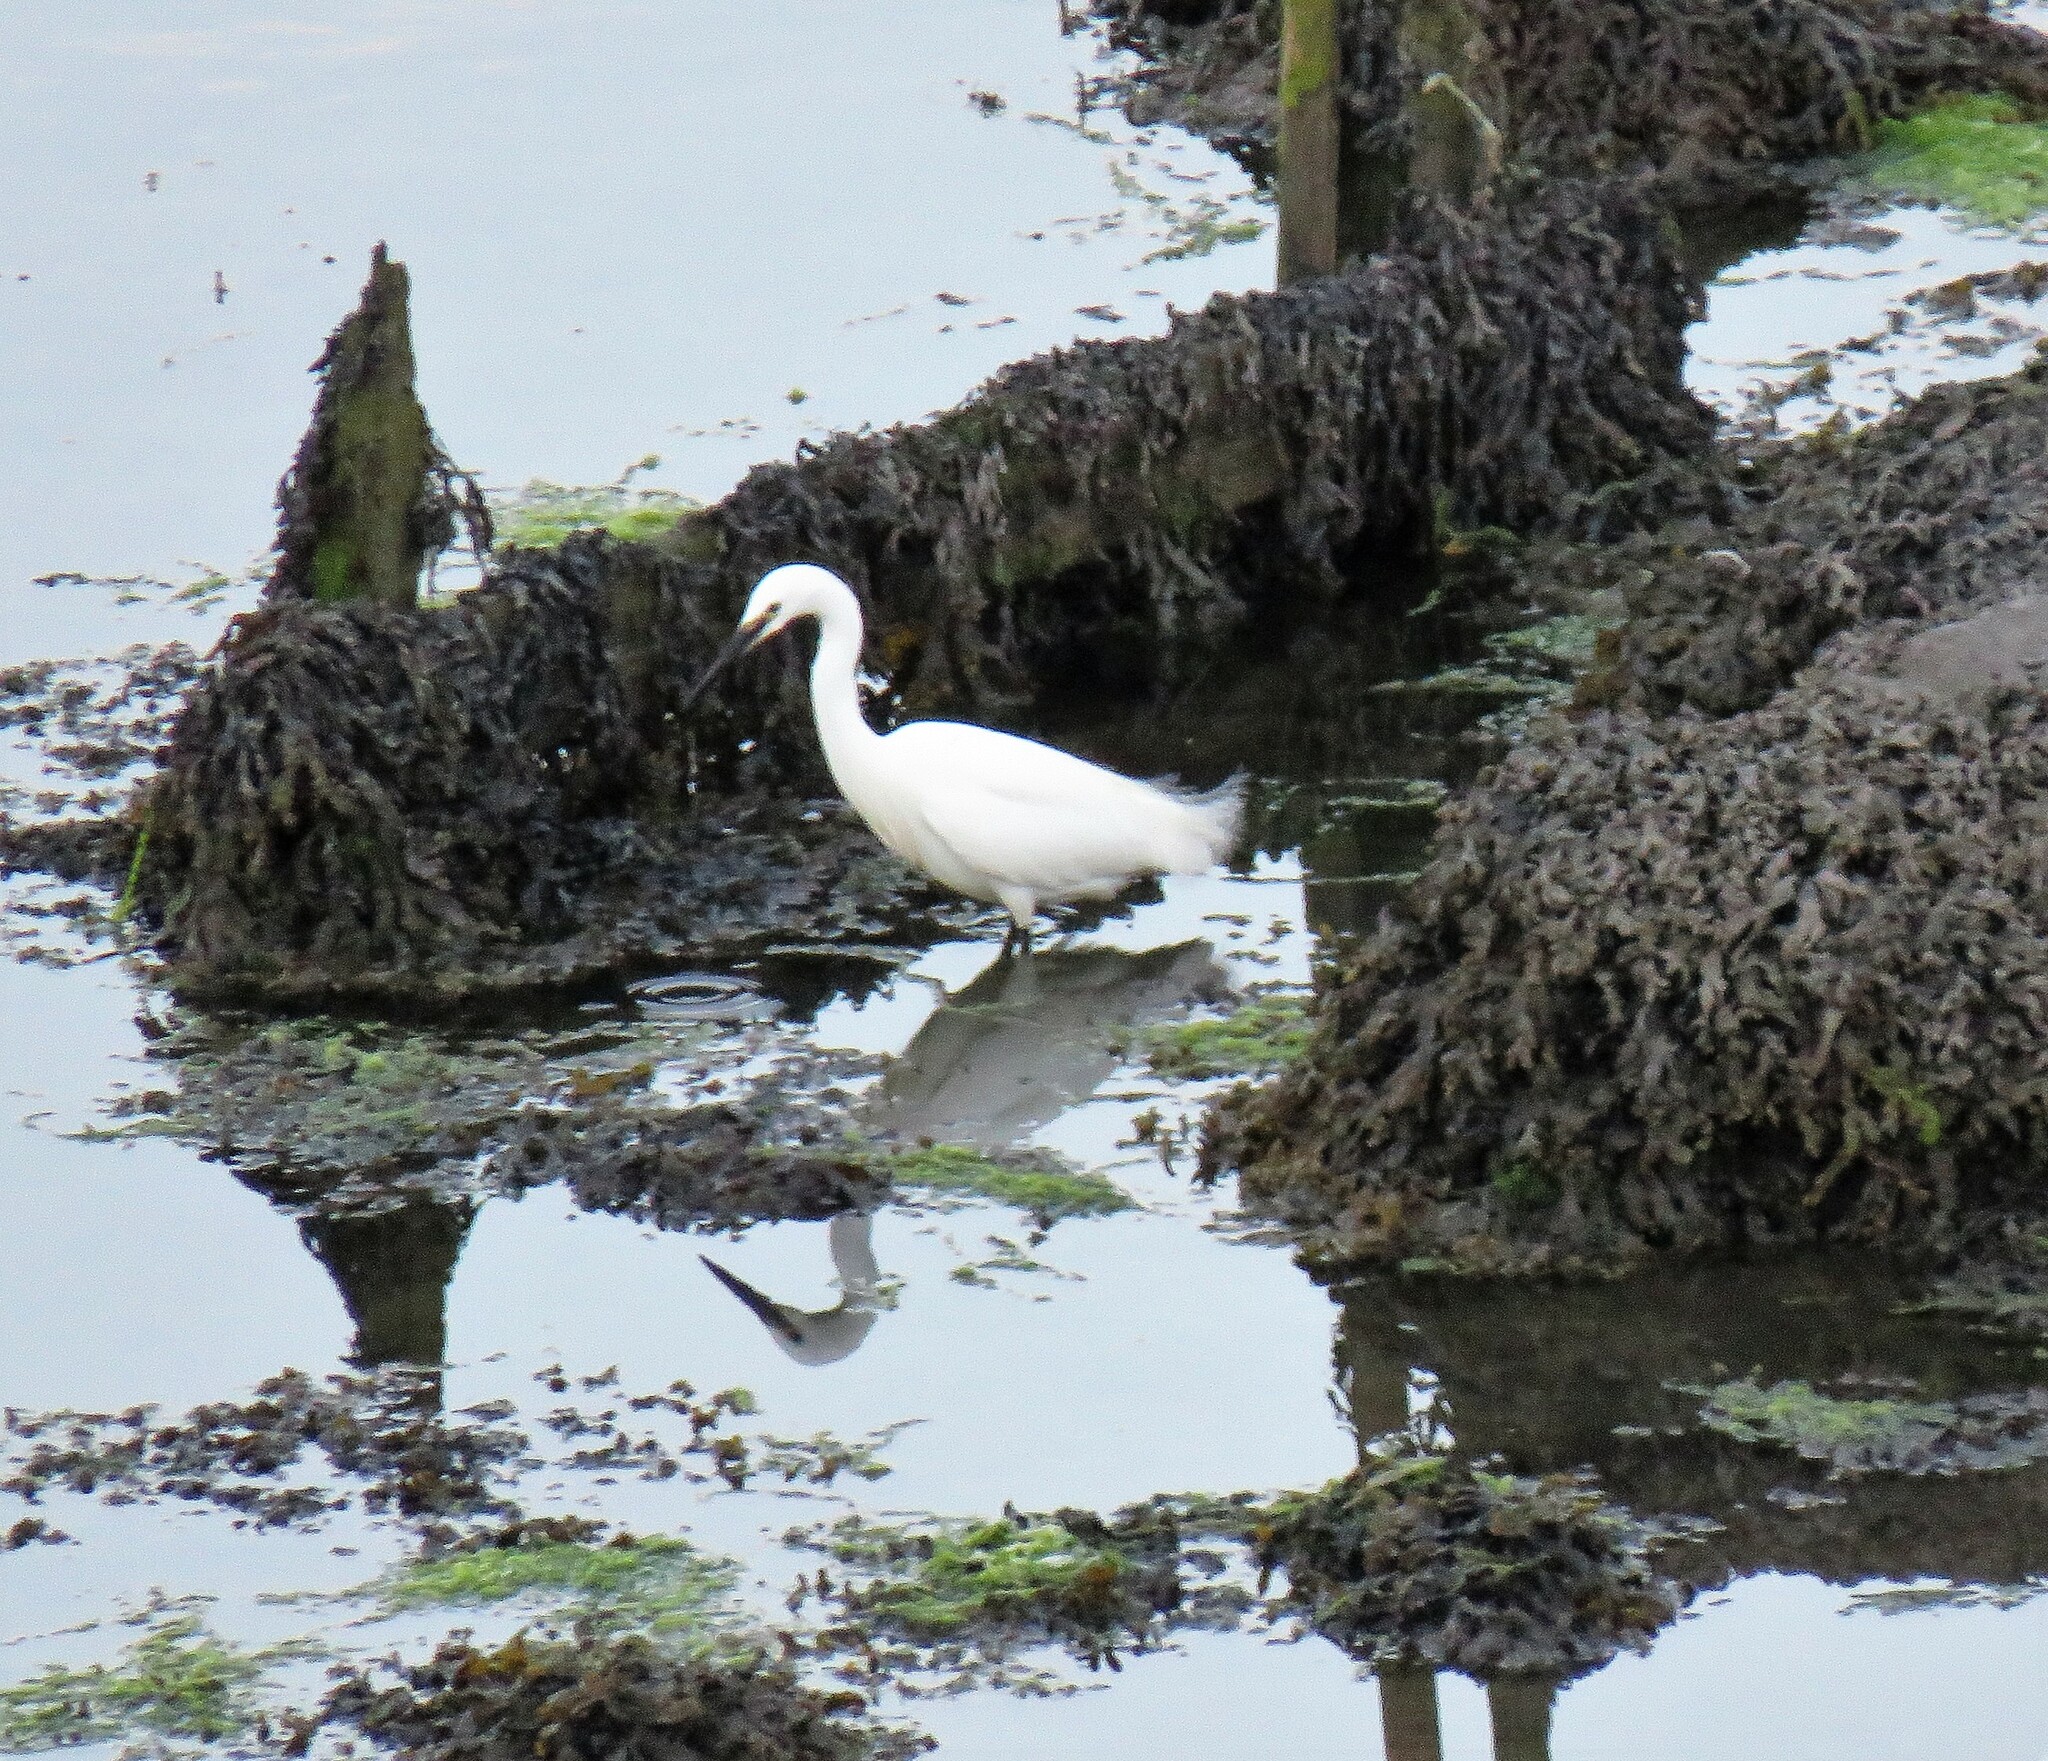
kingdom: Animalia
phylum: Chordata
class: Aves
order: Pelecaniformes
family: Ardeidae
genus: Egretta
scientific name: Egretta garzetta
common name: Little egret
